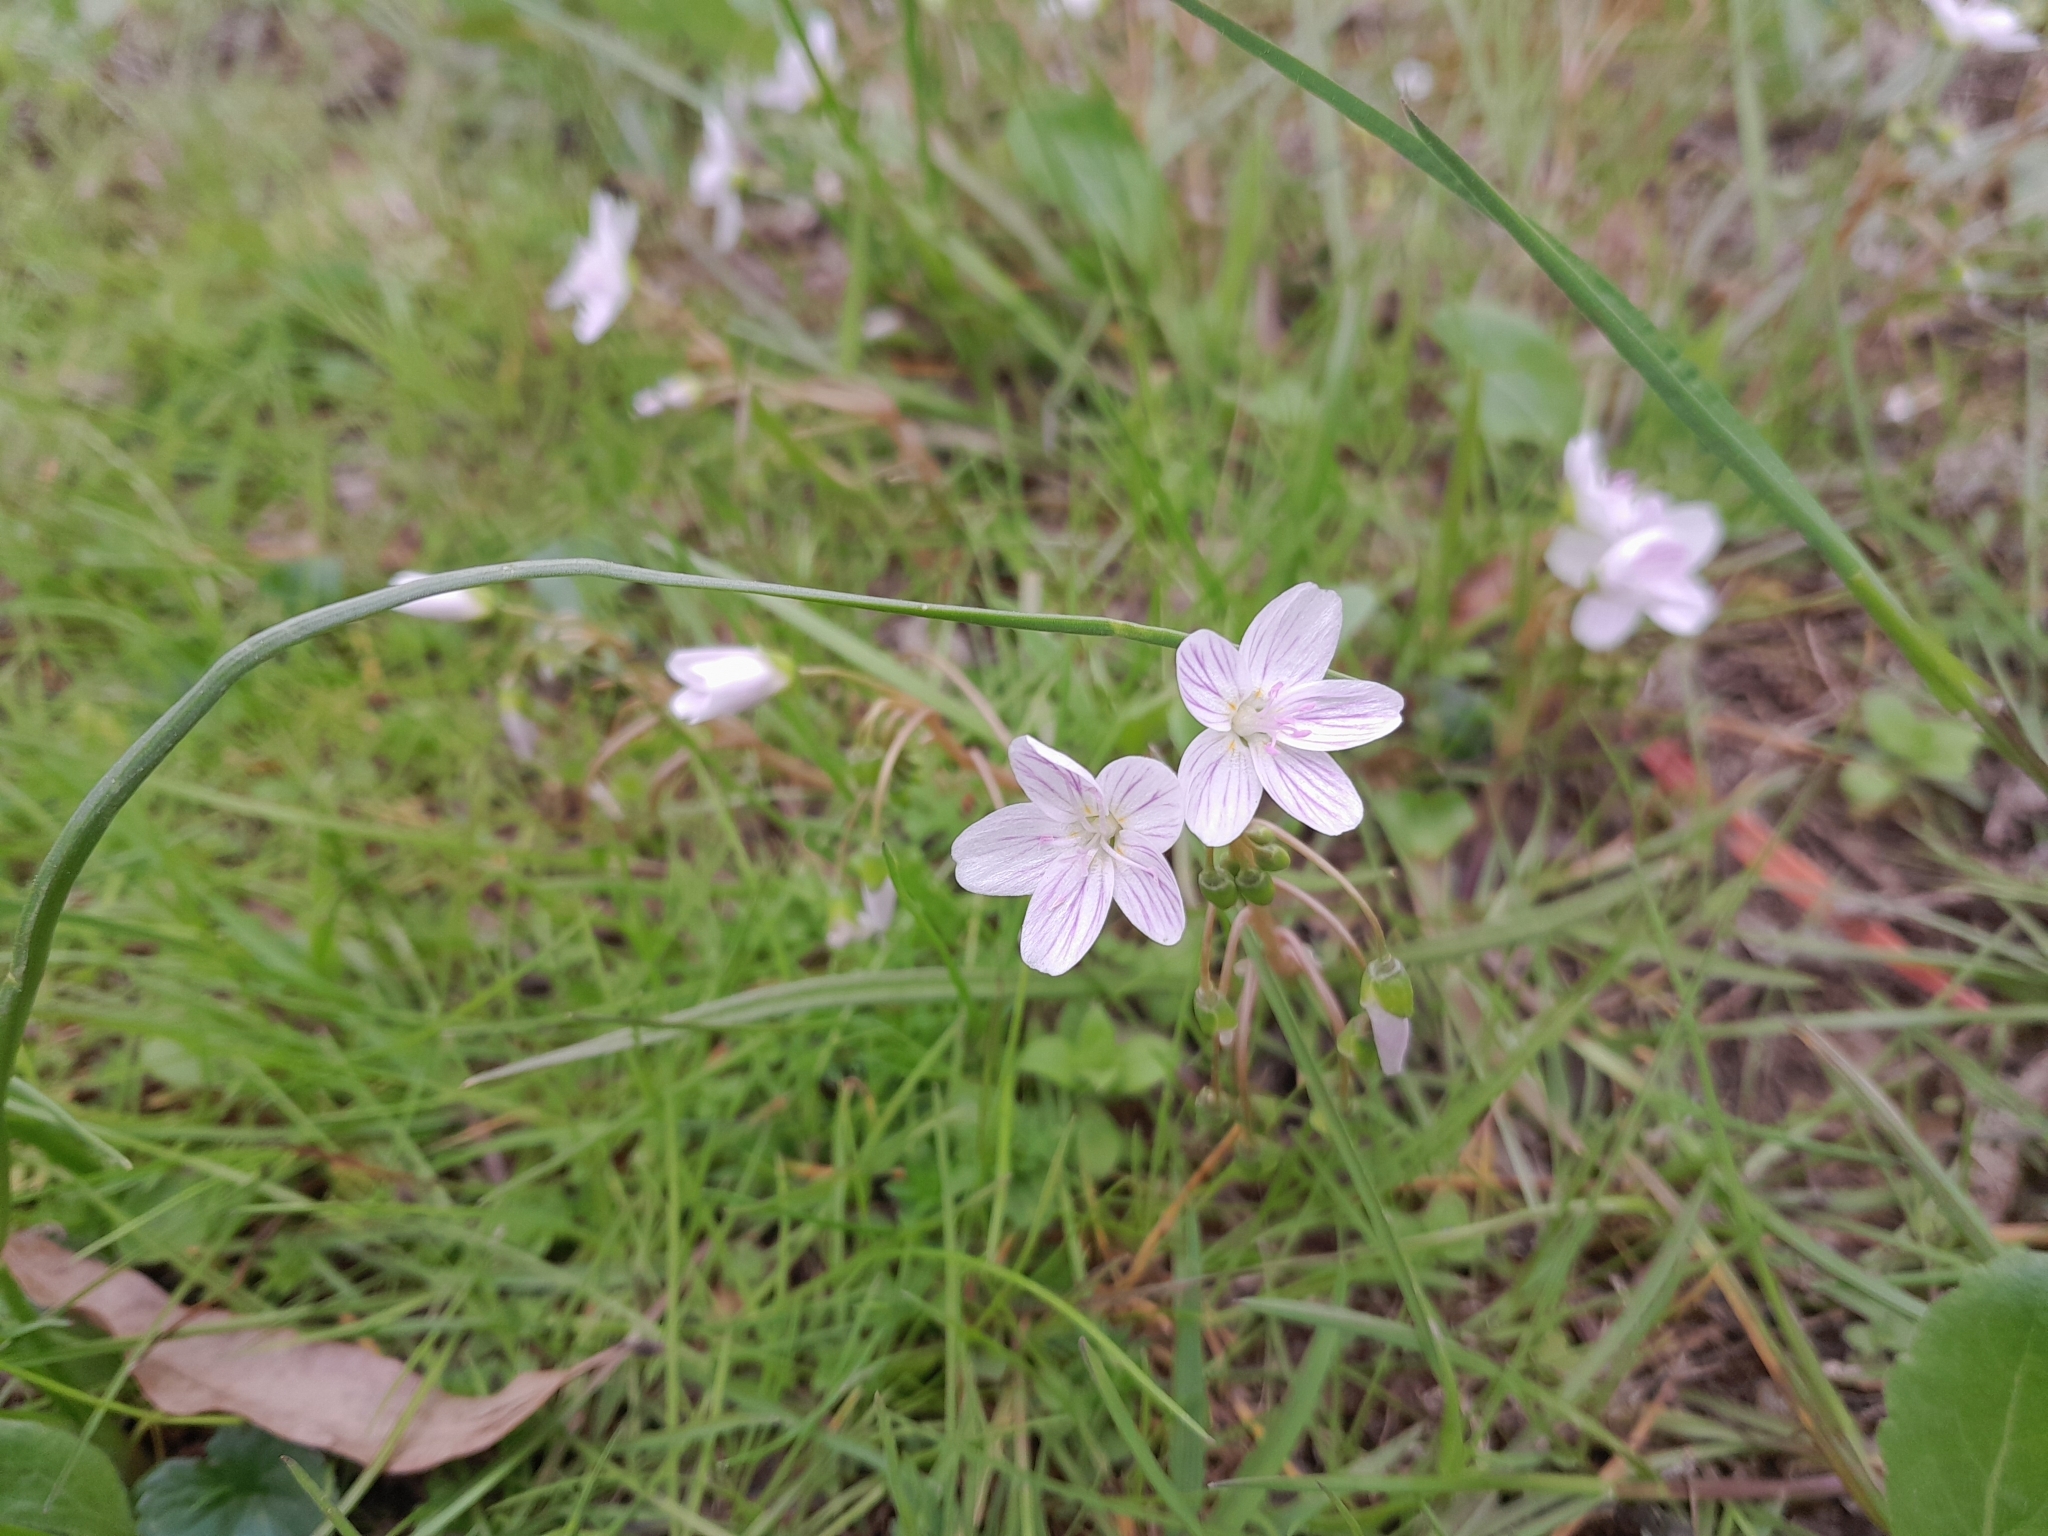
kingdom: Plantae
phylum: Tracheophyta
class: Magnoliopsida
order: Caryophyllales
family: Montiaceae
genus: Claytonia
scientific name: Claytonia virginica
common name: Virginia springbeauty
